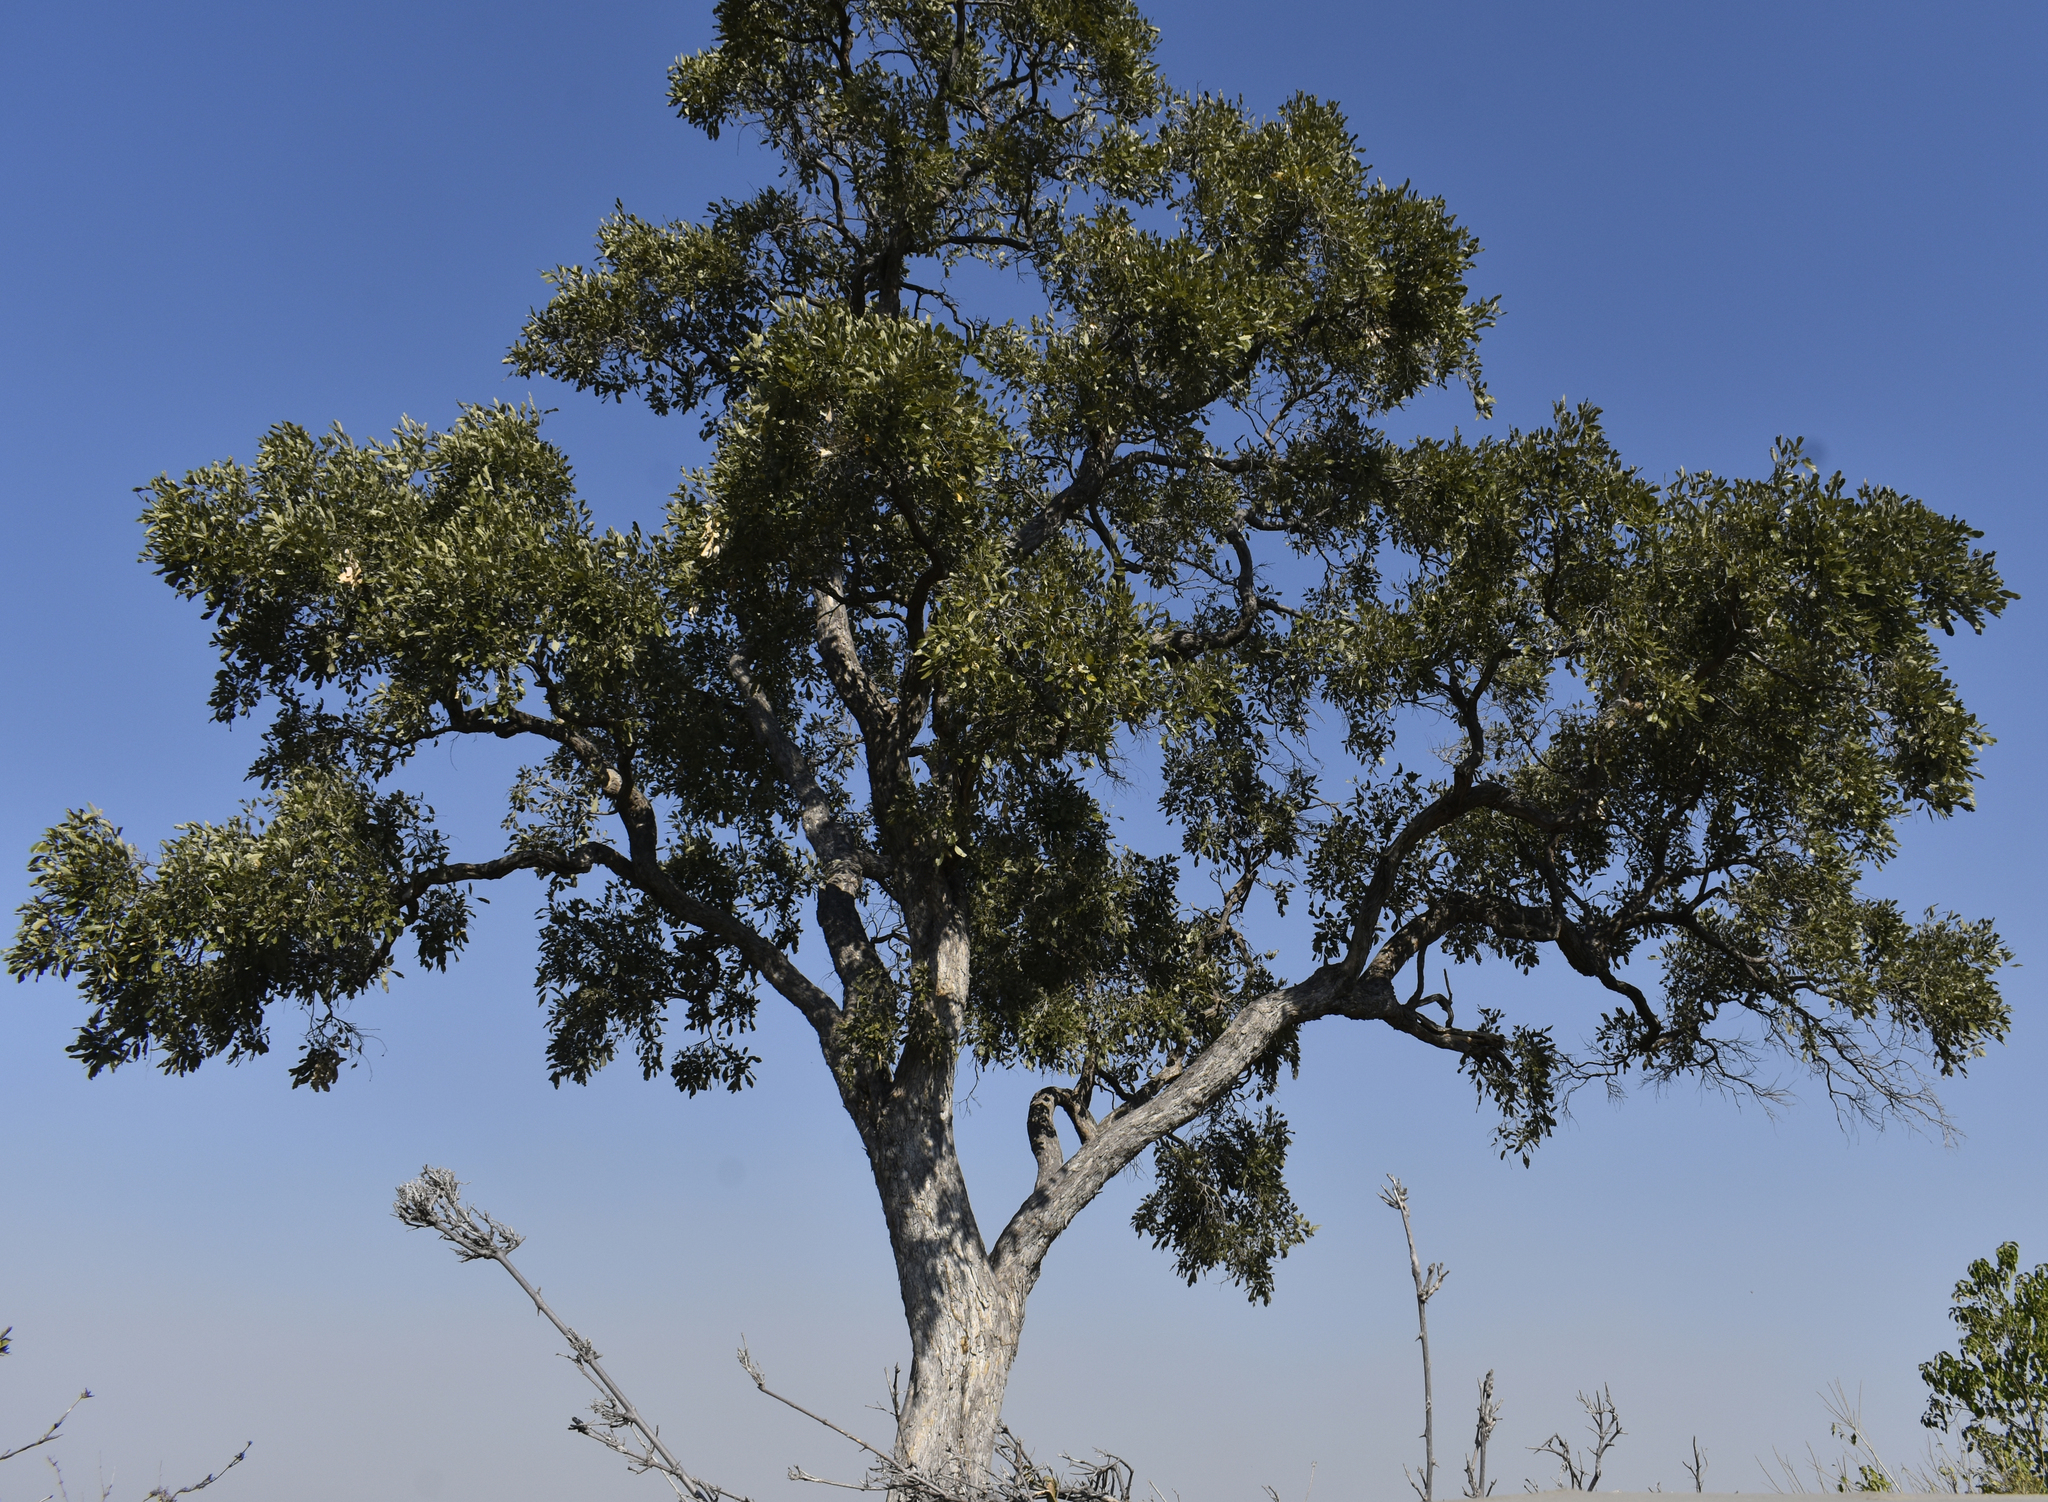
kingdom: Plantae
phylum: Tracheophyta
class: Magnoliopsida
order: Fabales
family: Fabaceae
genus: Philenoptera
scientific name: Philenoptera violacea
